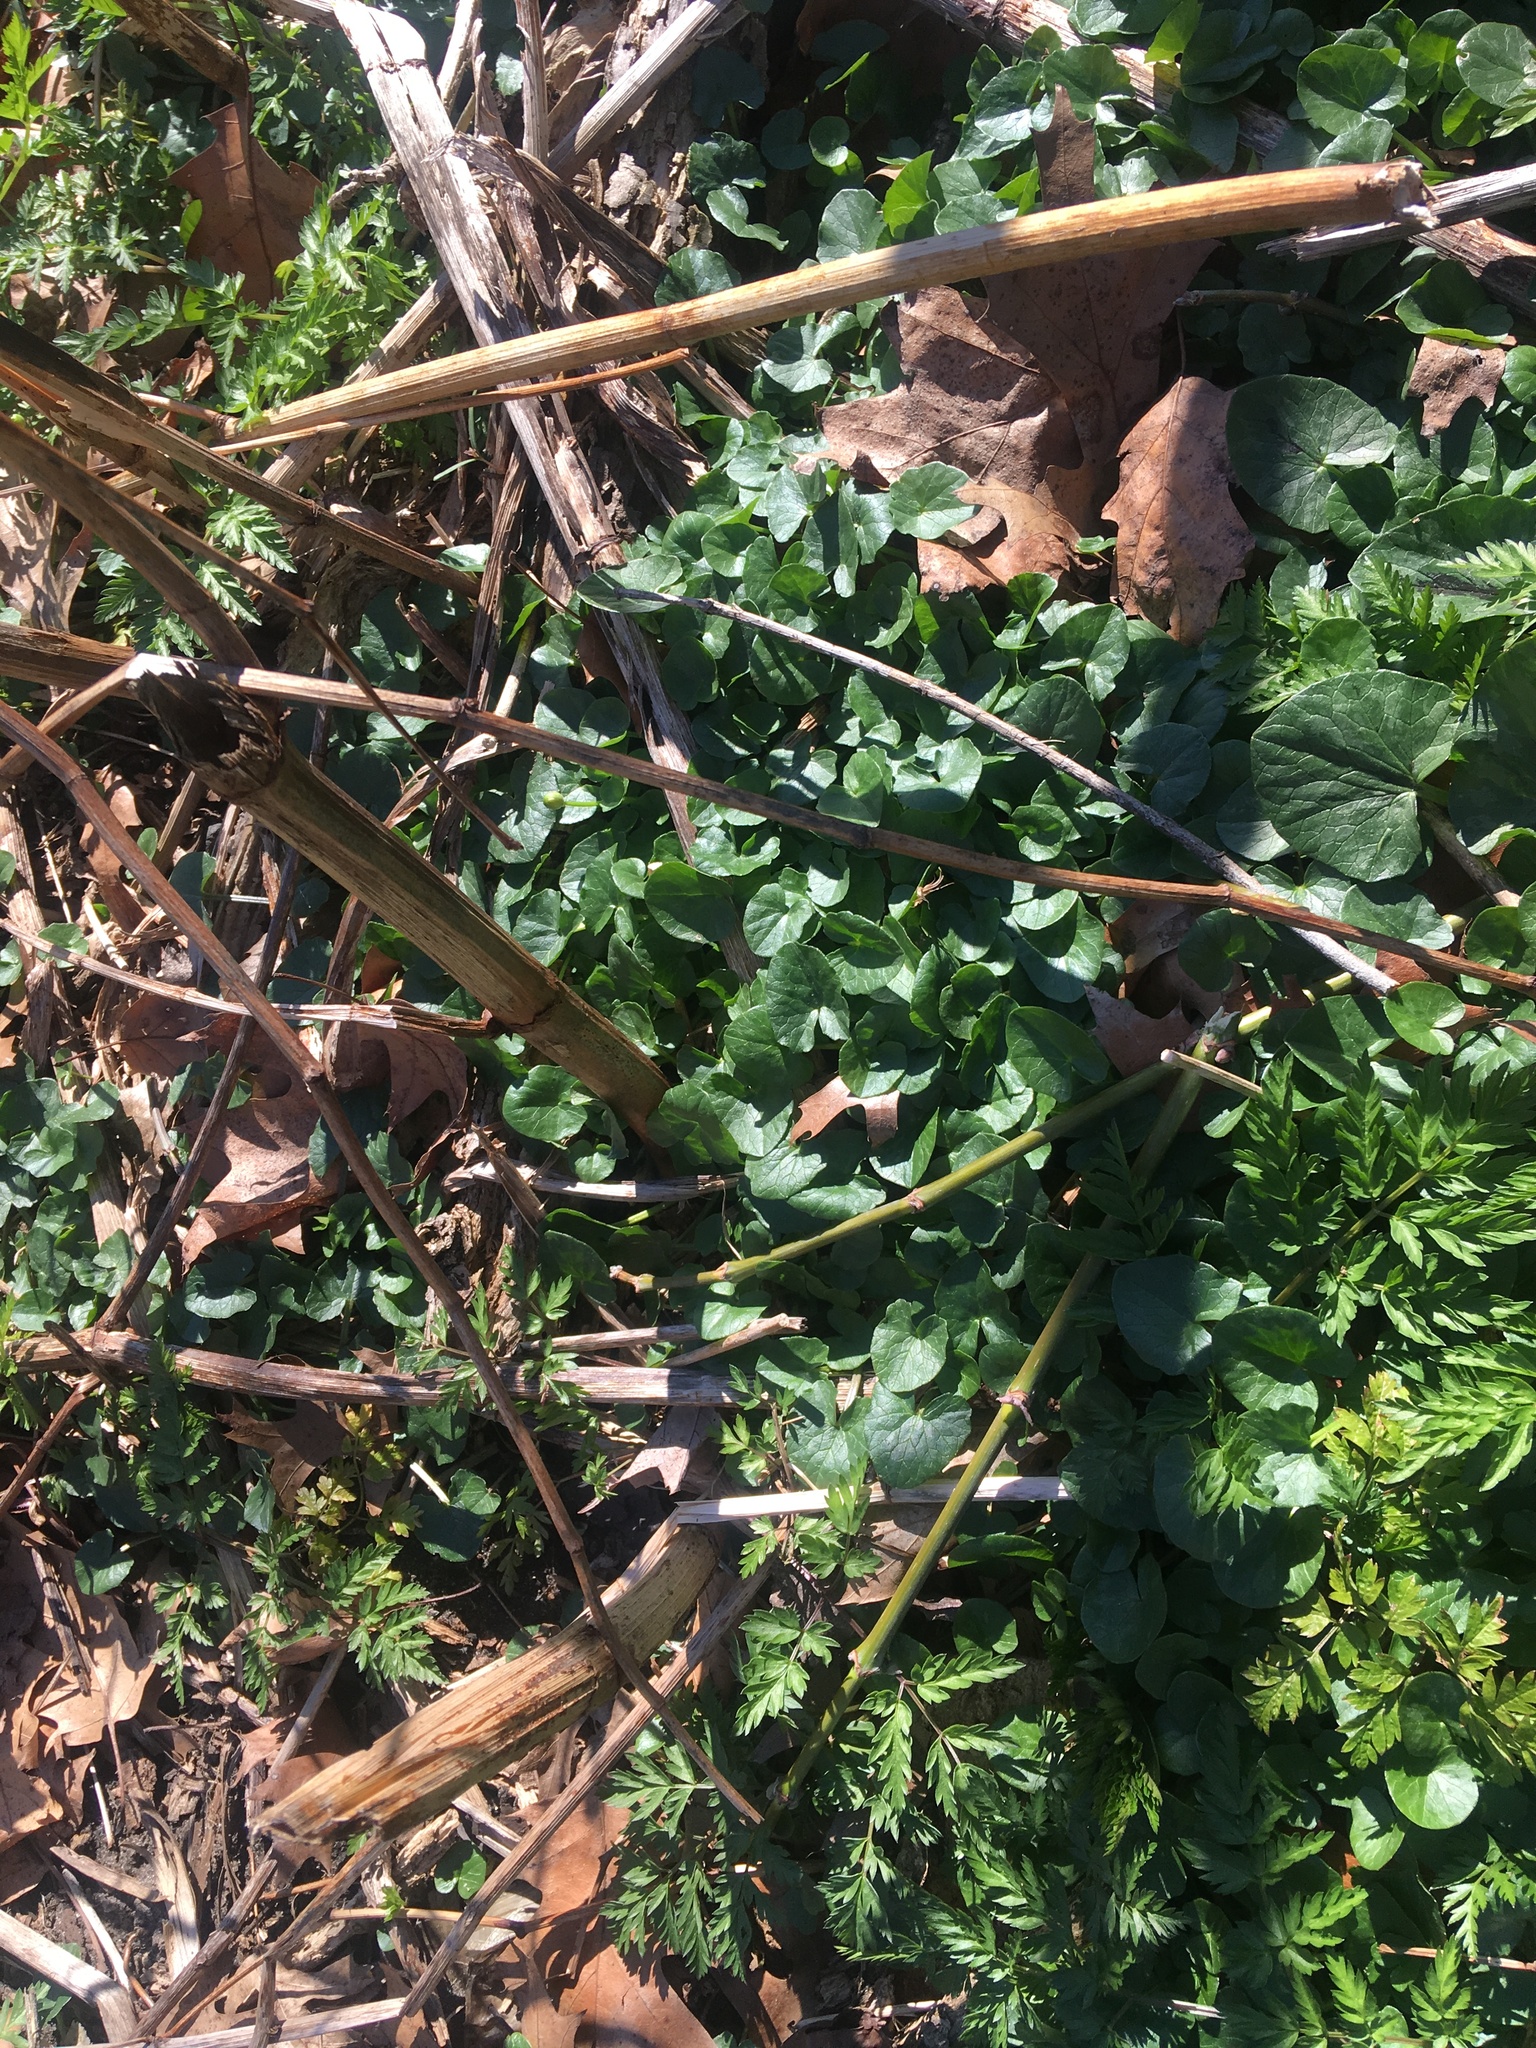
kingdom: Plantae
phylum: Tracheophyta
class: Magnoliopsida
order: Ranunculales
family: Ranunculaceae
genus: Ficaria
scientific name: Ficaria verna
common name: Lesser celandine
